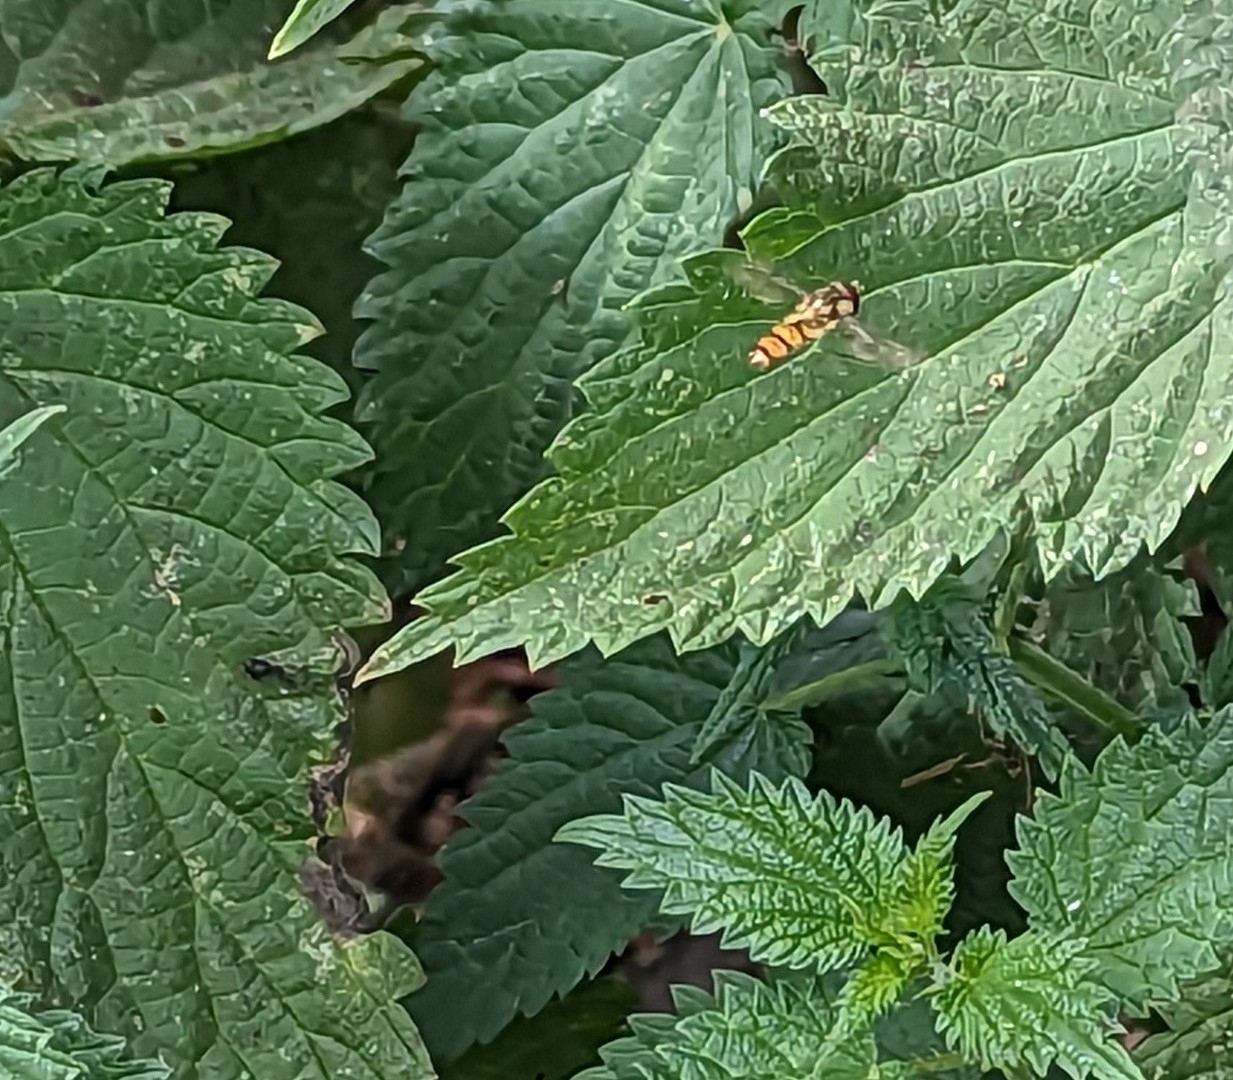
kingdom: Animalia
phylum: Arthropoda
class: Insecta
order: Diptera
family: Syrphidae
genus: Episyrphus
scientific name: Episyrphus balteatus
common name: Marmalade hoverfly
